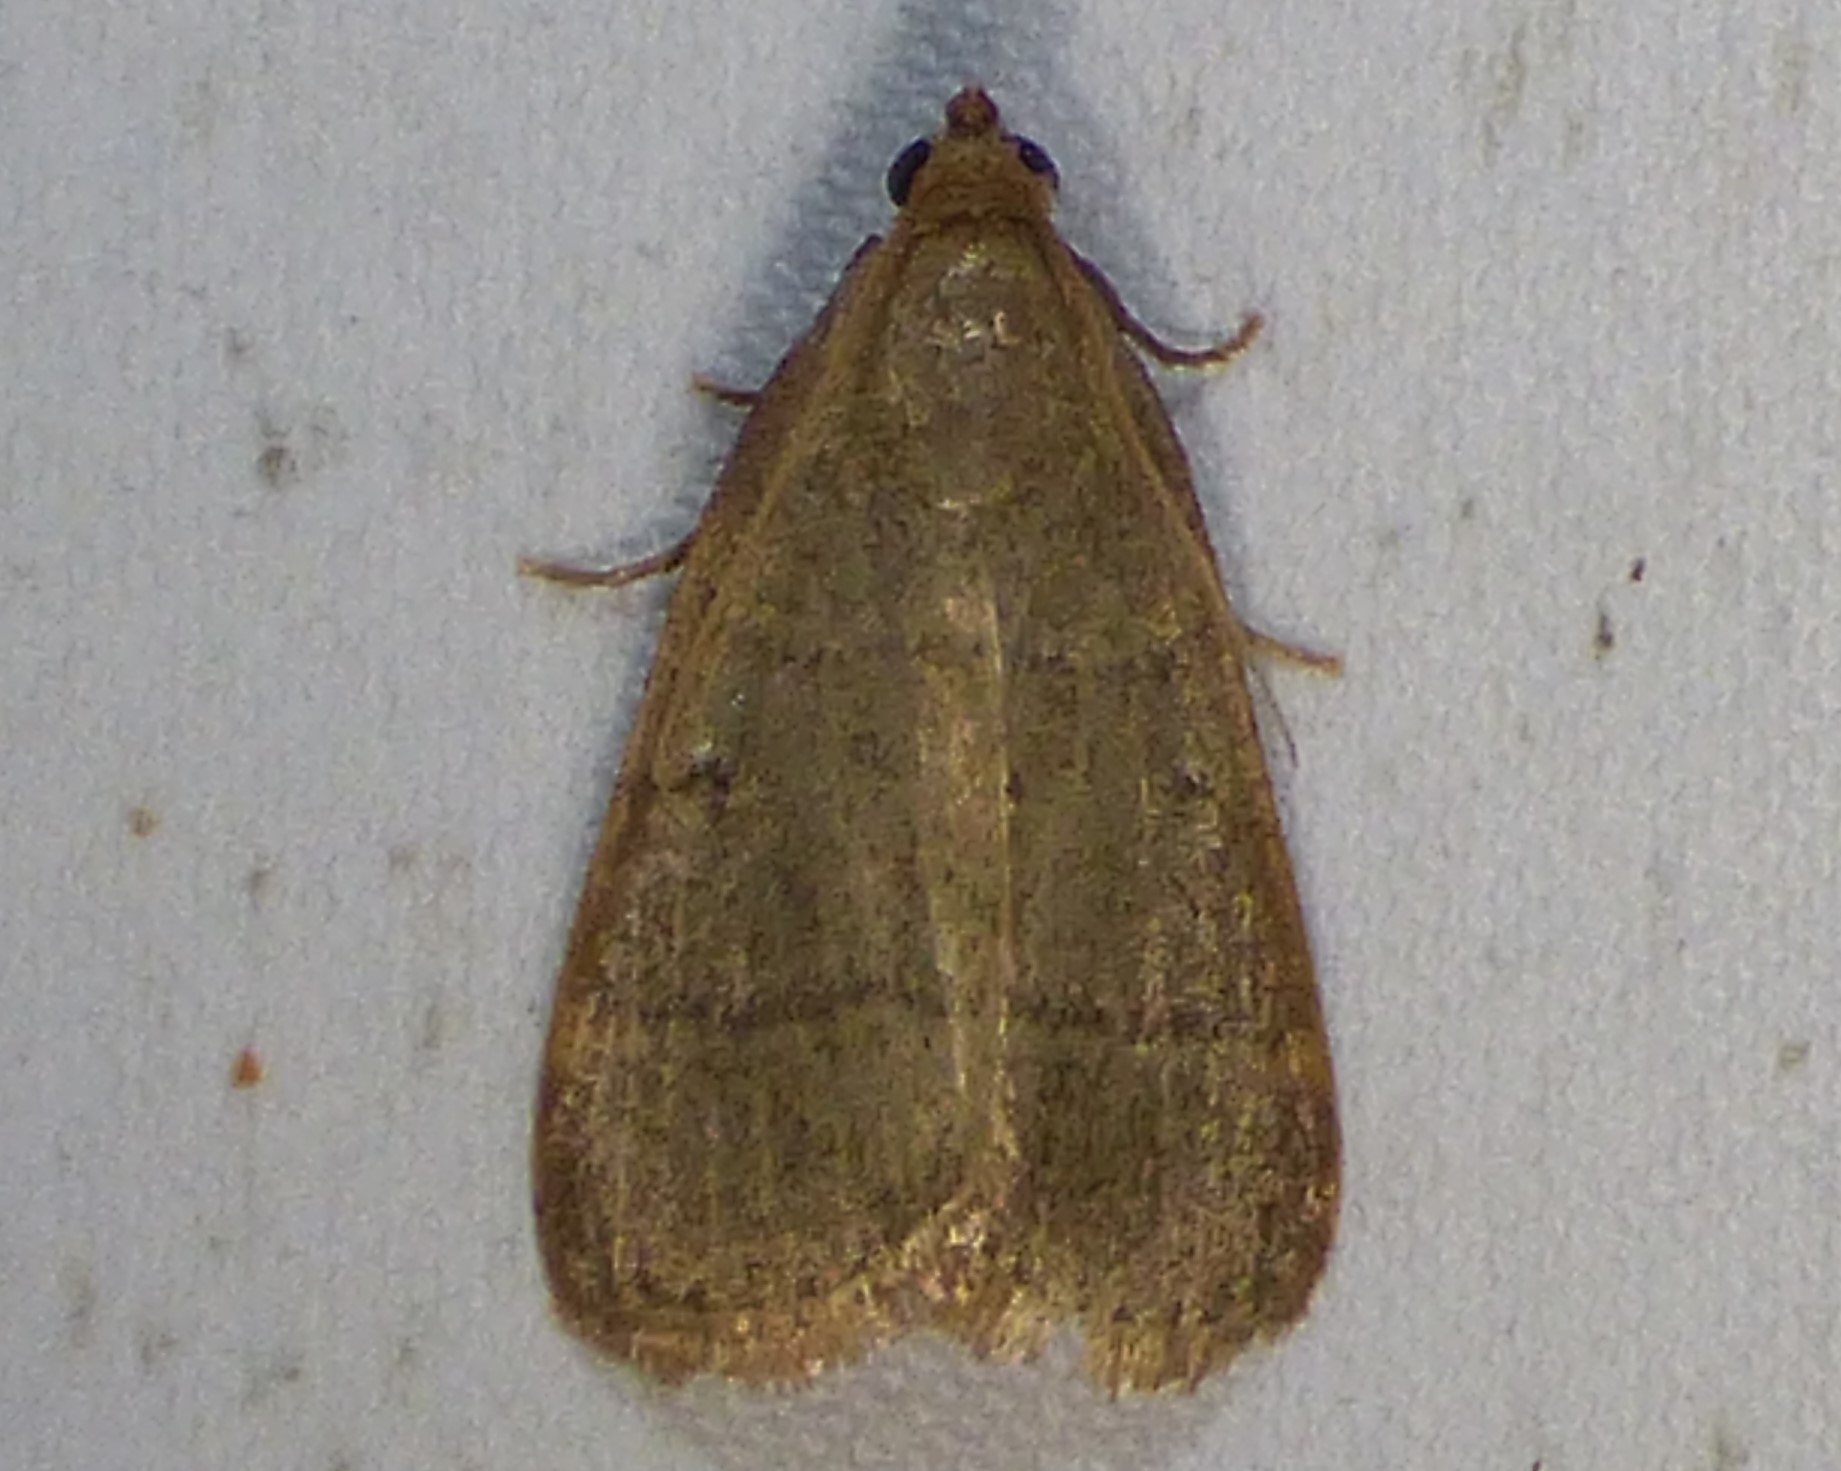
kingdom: Animalia
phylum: Arthropoda
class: Insecta
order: Lepidoptera
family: Pyralidae
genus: Hypsopygia
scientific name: Hypsopygia nostralis
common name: Southern hayworm moth
